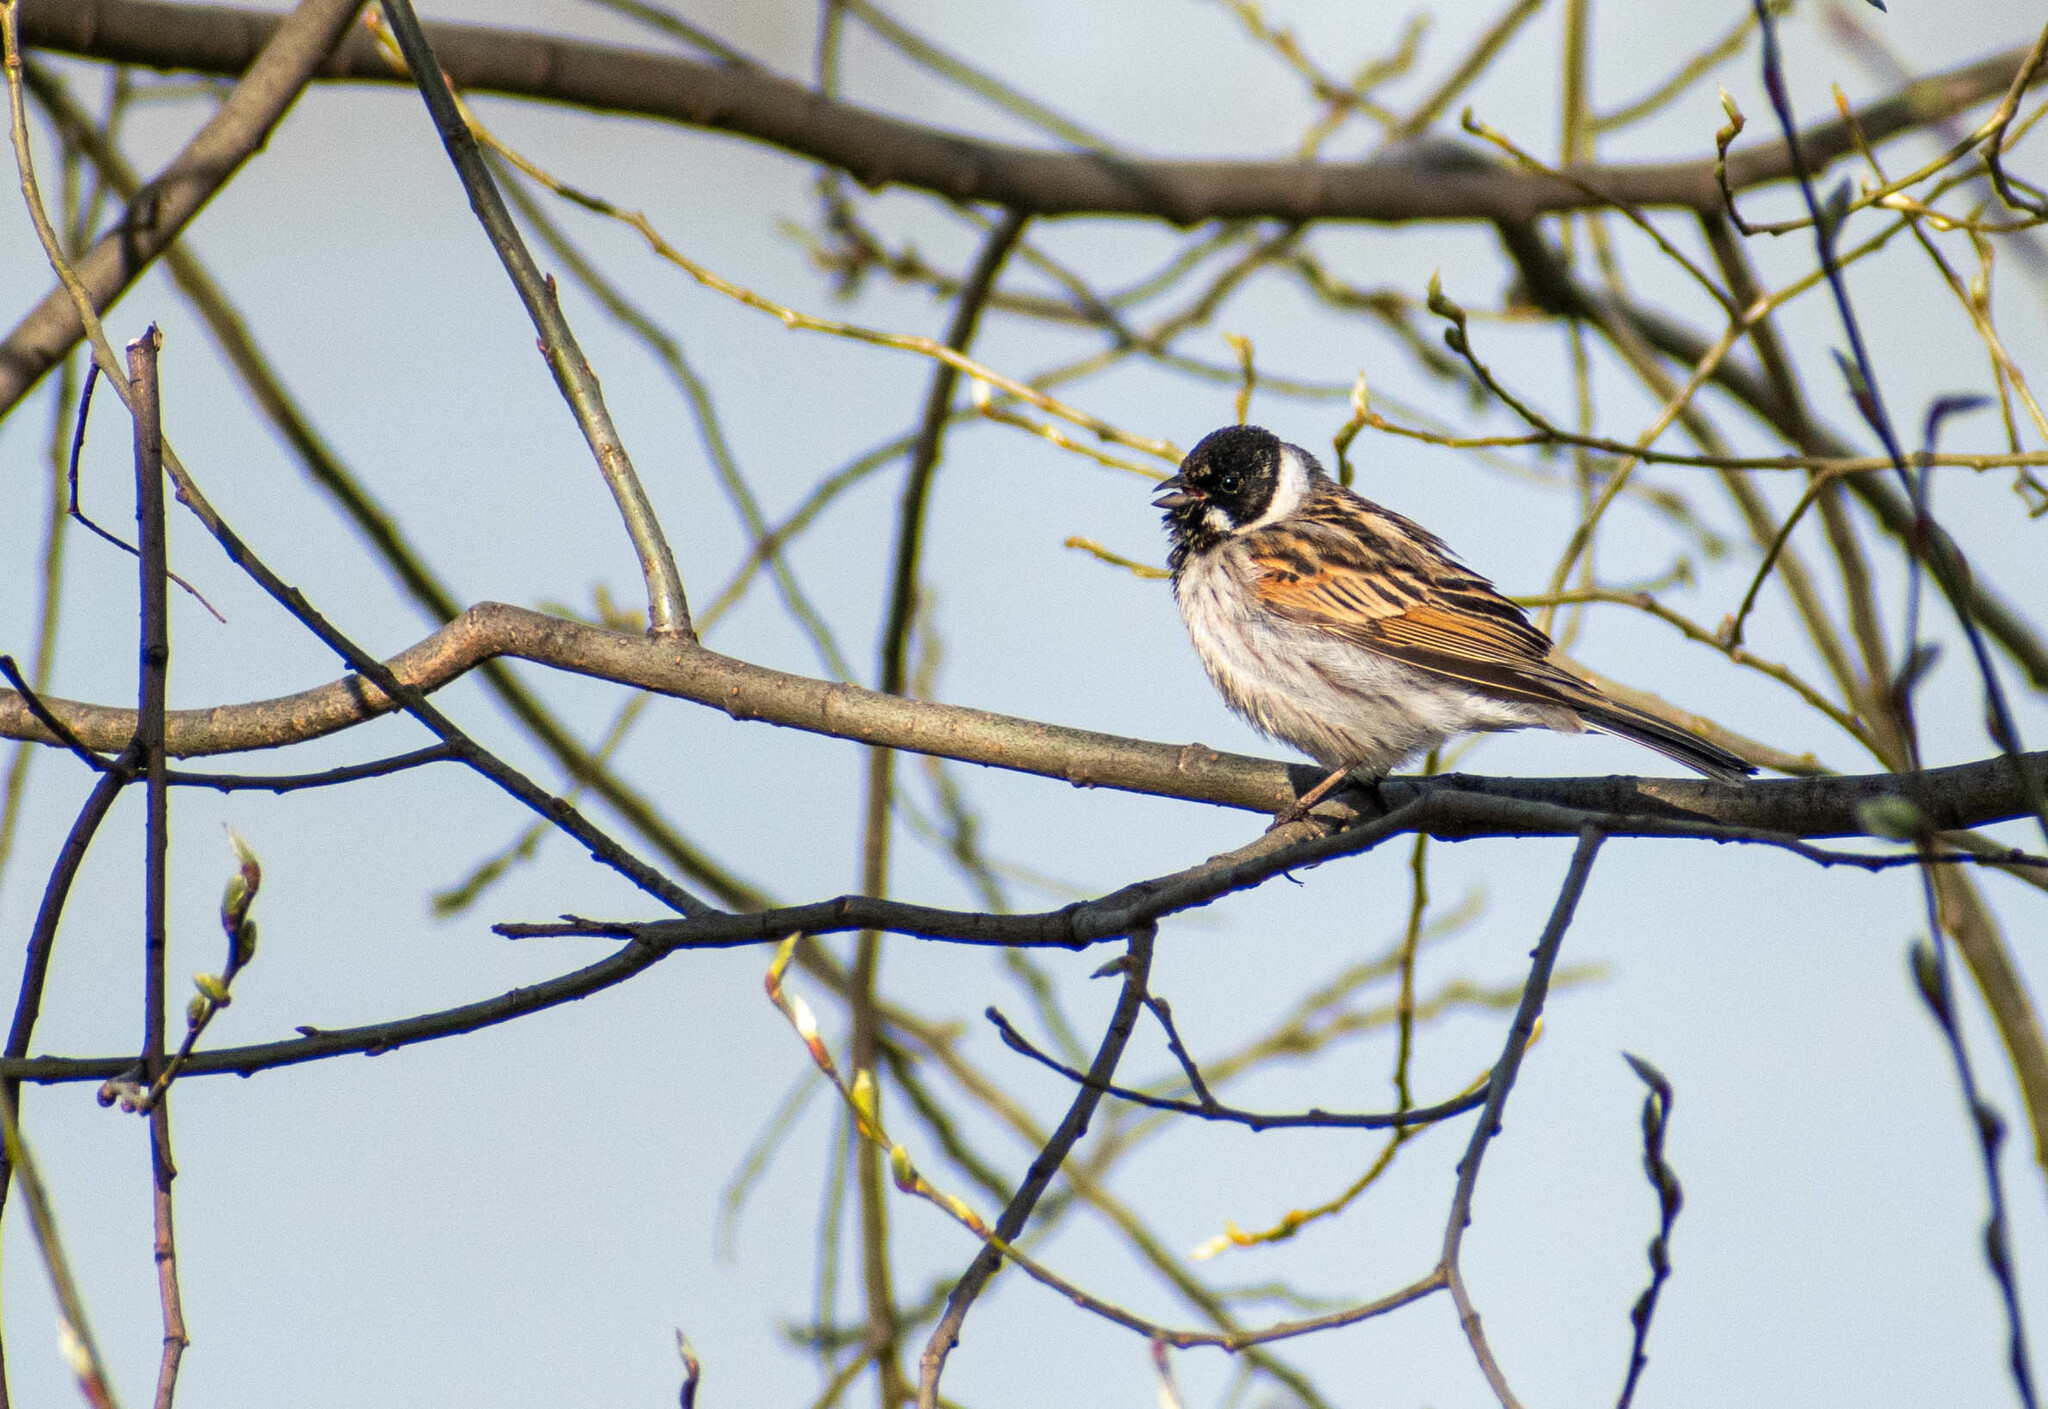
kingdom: Animalia
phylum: Chordata
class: Aves
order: Passeriformes
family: Emberizidae
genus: Emberiza
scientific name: Emberiza schoeniclus
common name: Reed bunting
